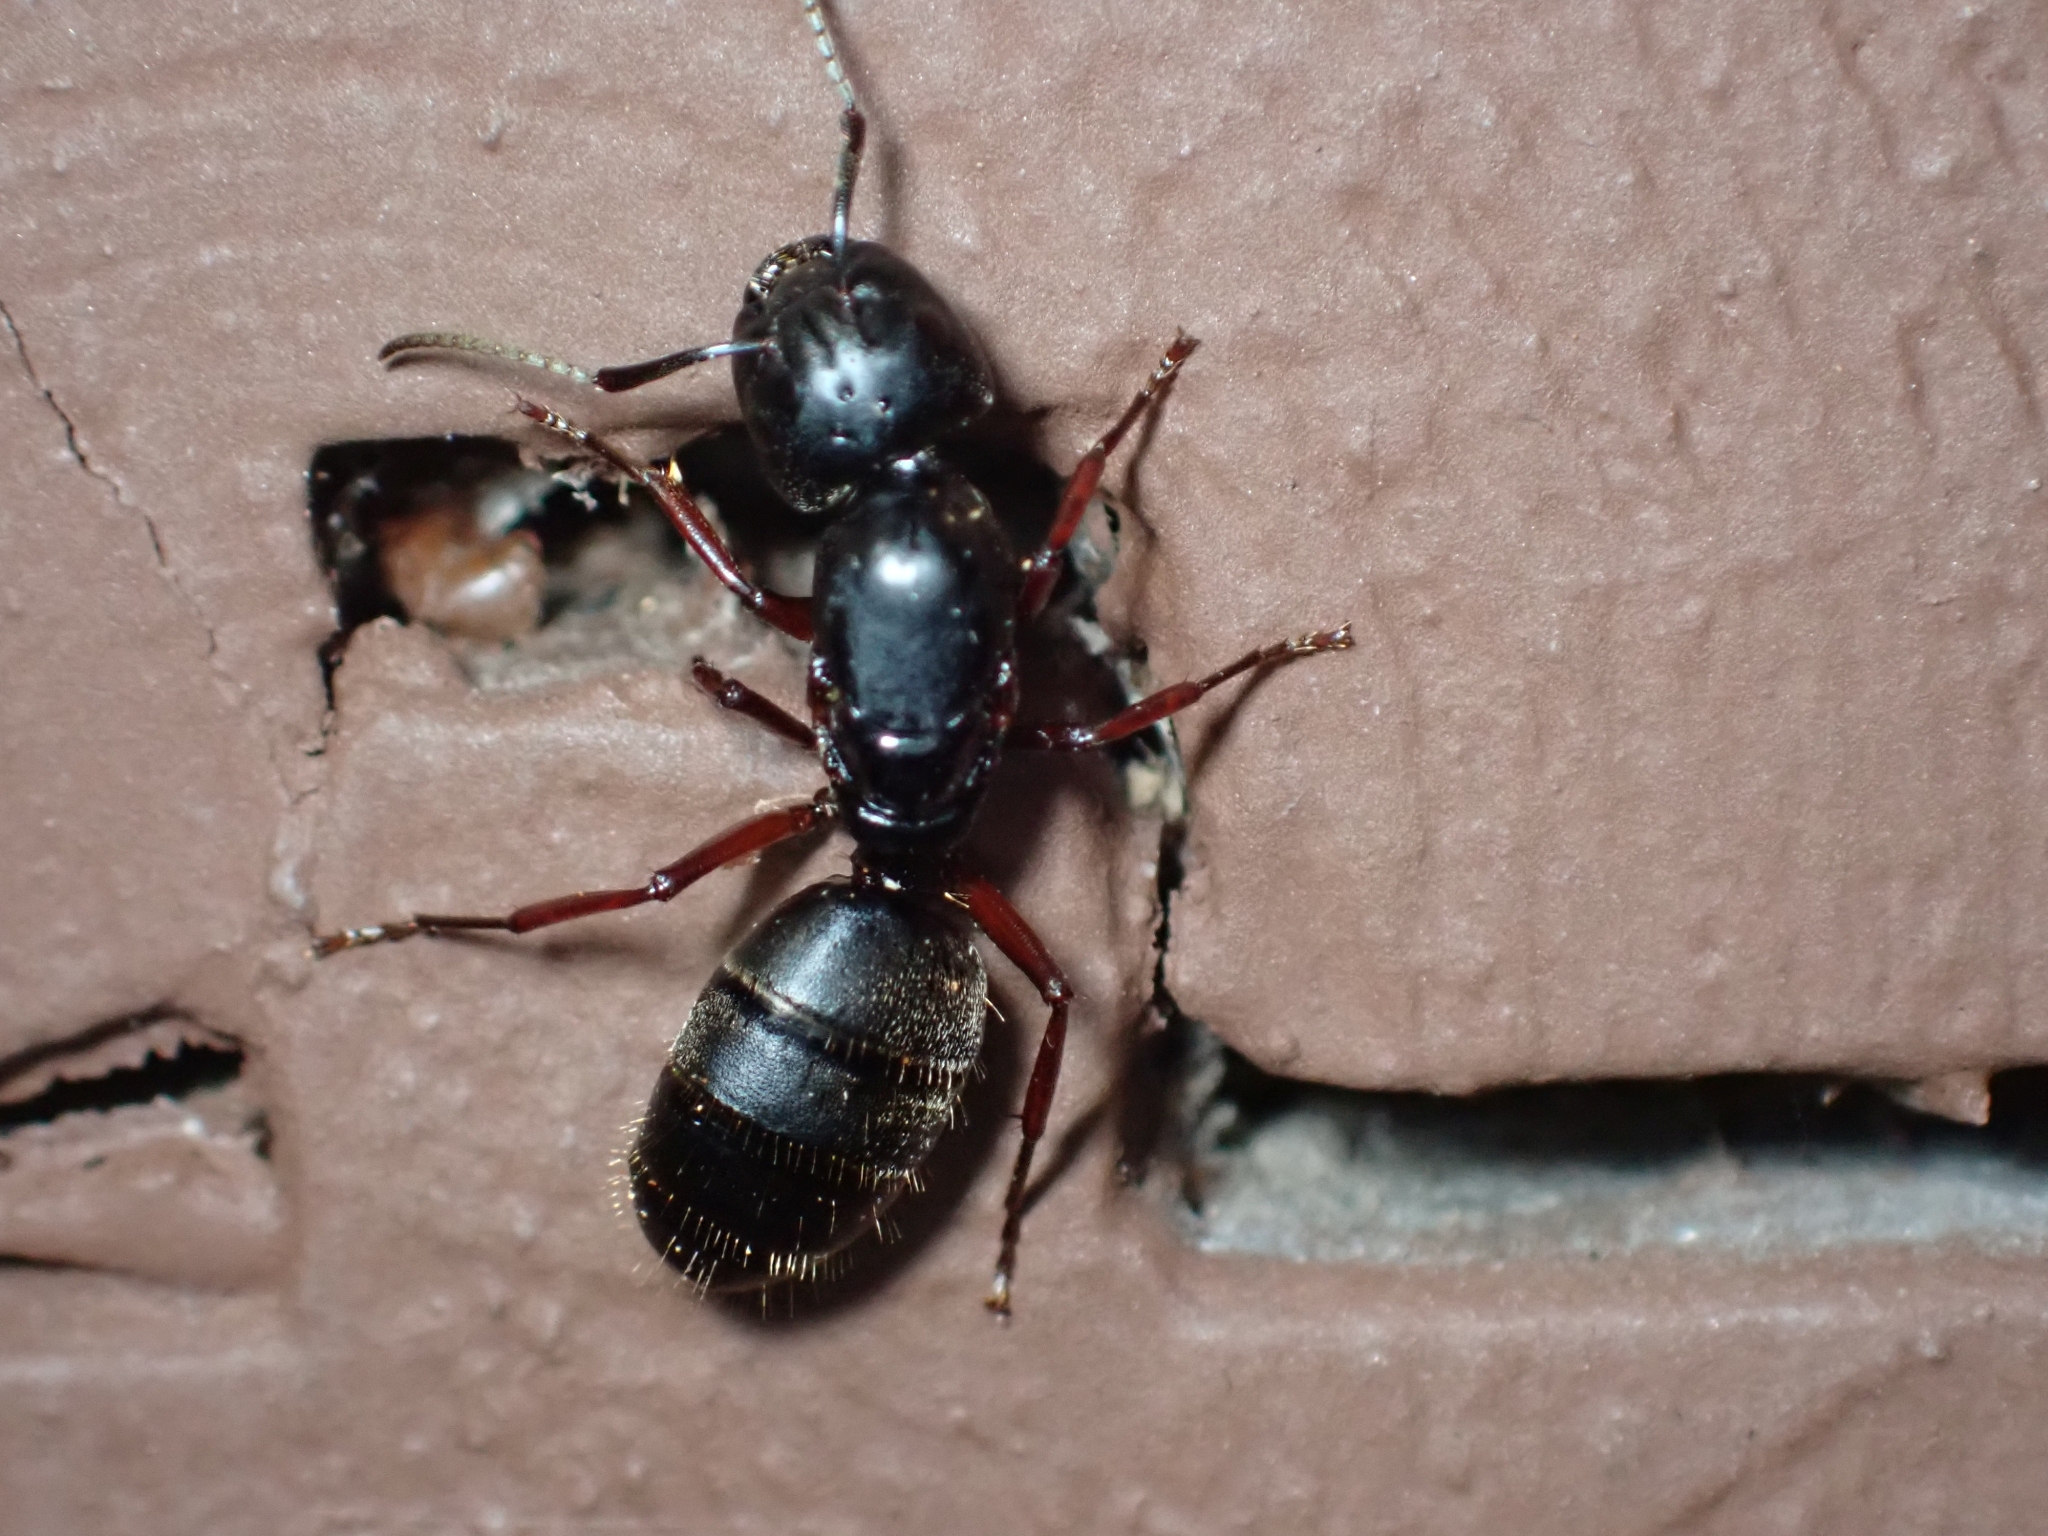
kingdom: Animalia
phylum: Arthropoda
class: Insecta
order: Hymenoptera
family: Formicidae
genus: Camponotus
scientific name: Camponotus modoc
